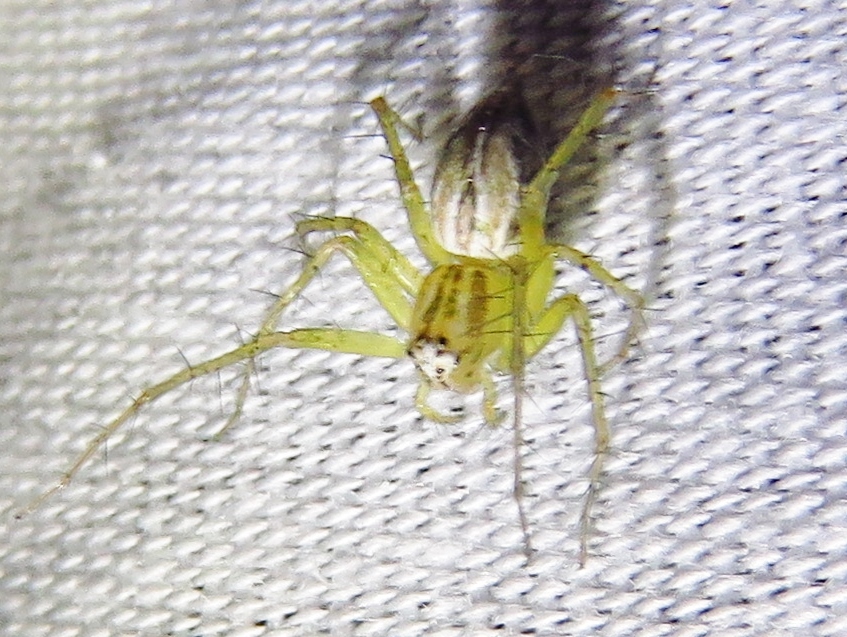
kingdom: Animalia
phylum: Arthropoda
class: Arachnida
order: Araneae
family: Oxyopidae
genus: Oxyopes
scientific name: Oxyopes salticus
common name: Lynx spiders
